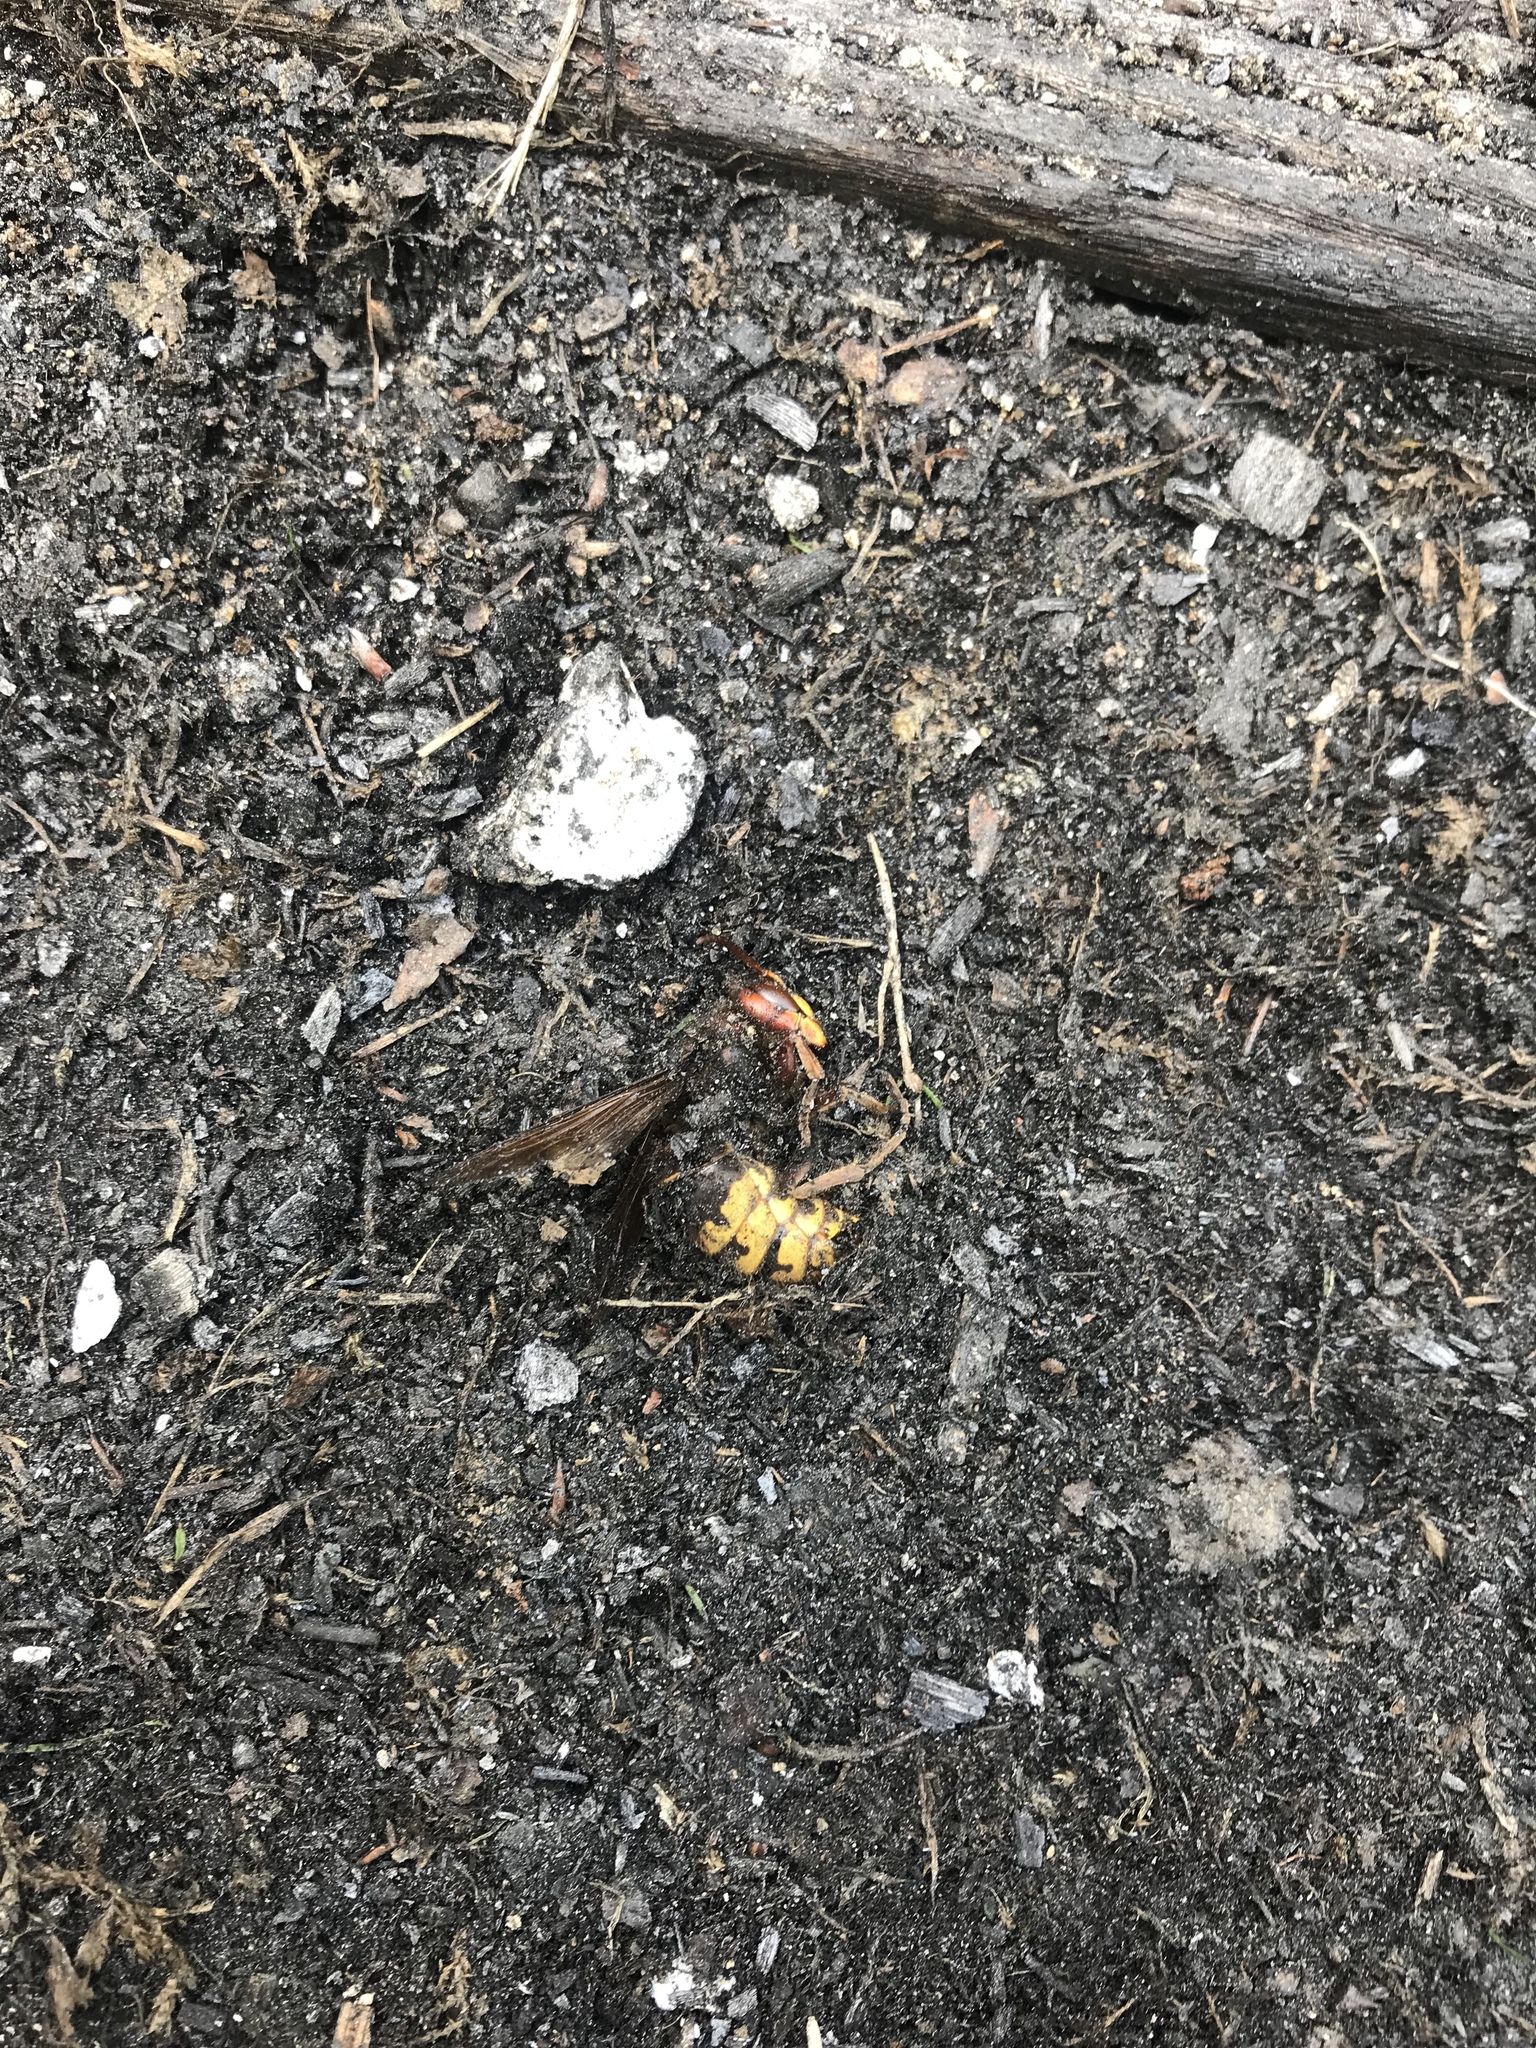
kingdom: Animalia
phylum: Arthropoda
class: Insecta
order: Hymenoptera
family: Vespidae
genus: Vespa
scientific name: Vespa crabro
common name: Hornet
